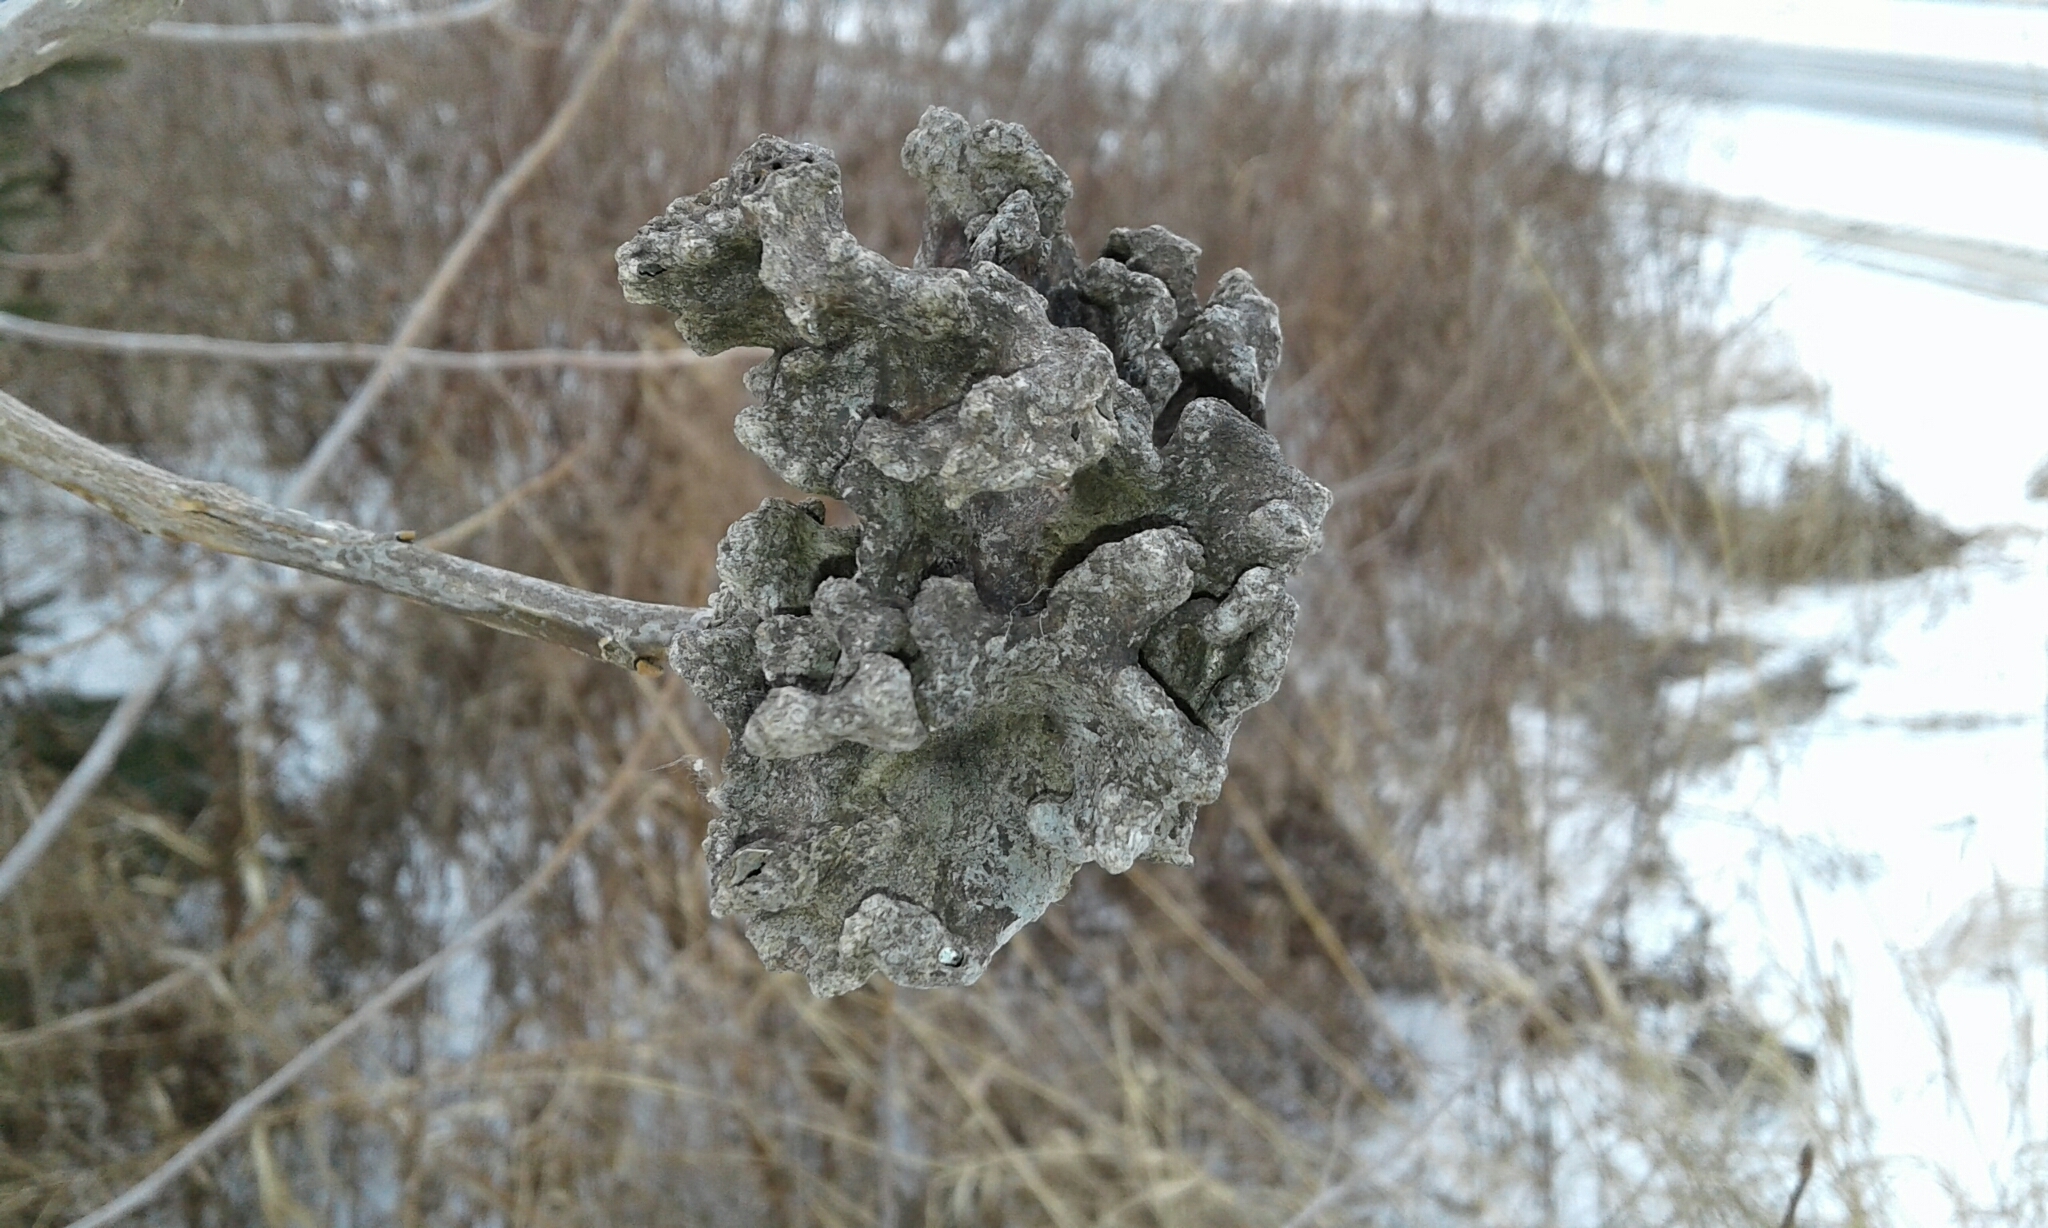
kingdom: Animalia
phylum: Arthropoda
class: Insecta
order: Hemiptera
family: Aphididae
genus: Mordwilkoja
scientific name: Mordwilkoja vagabunda
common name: Poplar vagabond aphid
